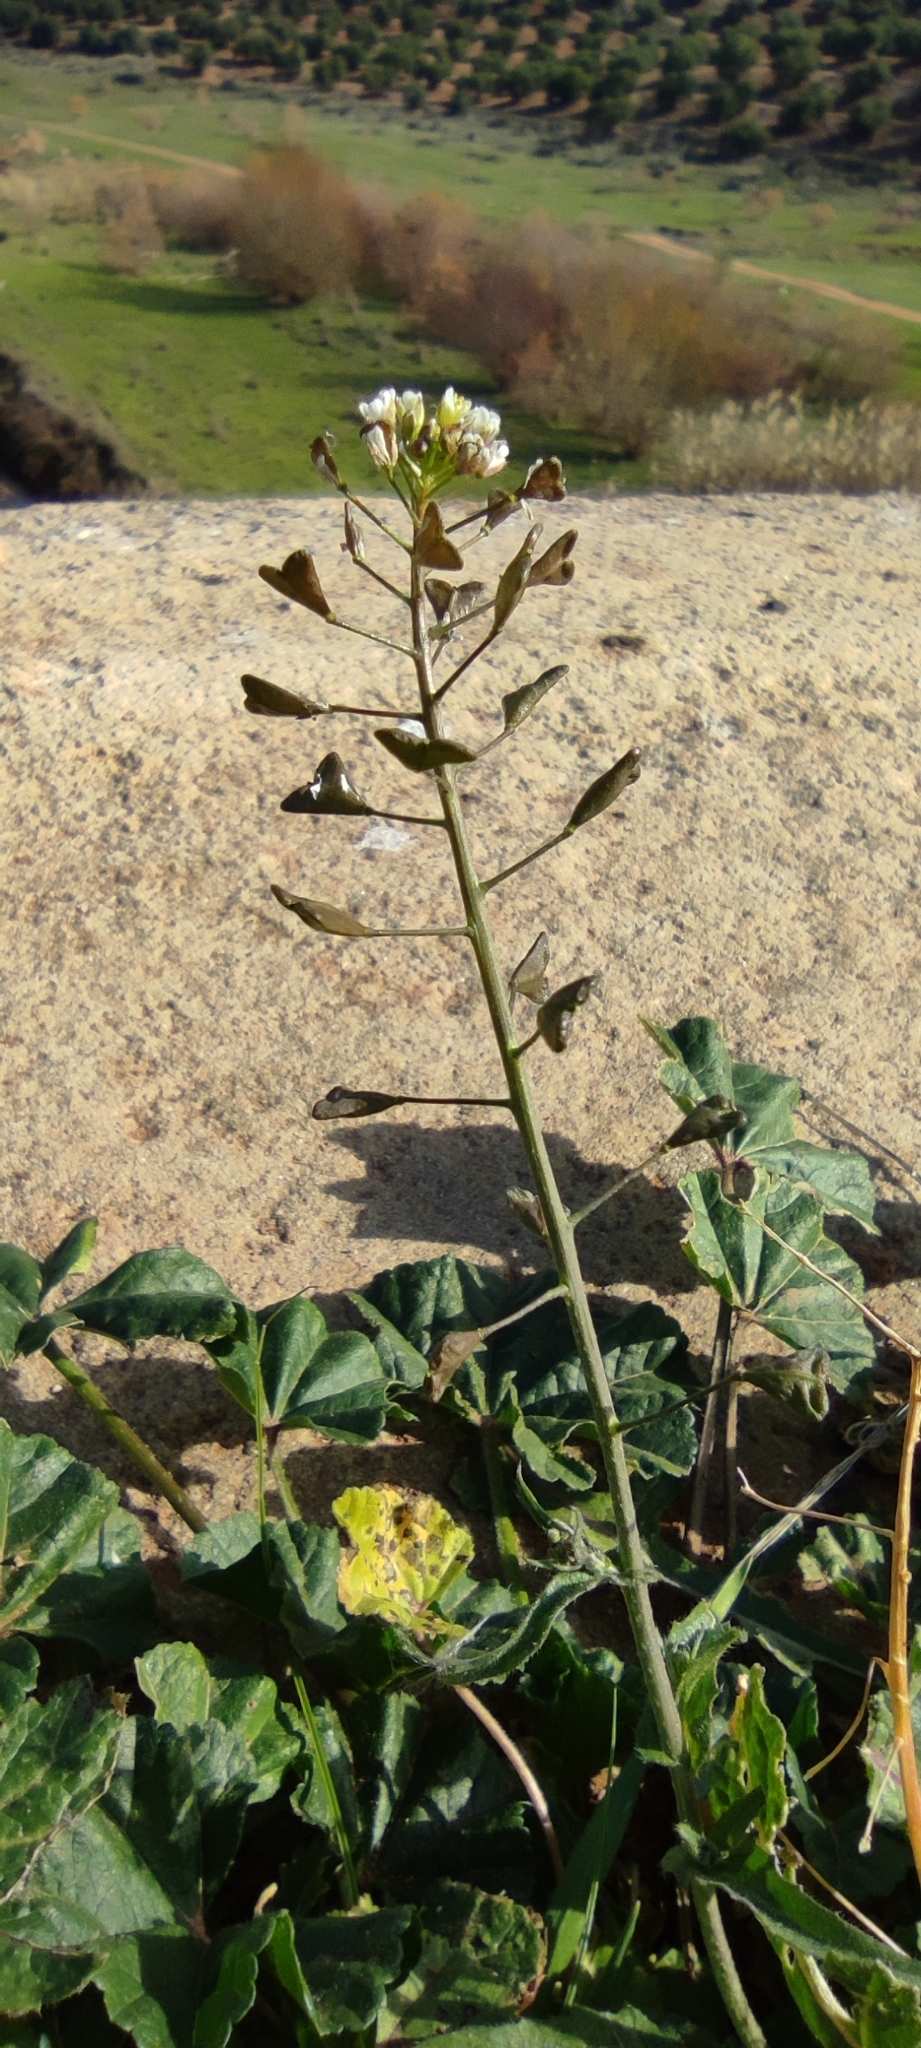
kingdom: Plantae
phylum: Tracheophyta
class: Magnoliopsida
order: Brassicales
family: Brassicaceae
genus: Capsella
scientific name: Capsella bursa-pastoris
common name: Shepherd's purse
